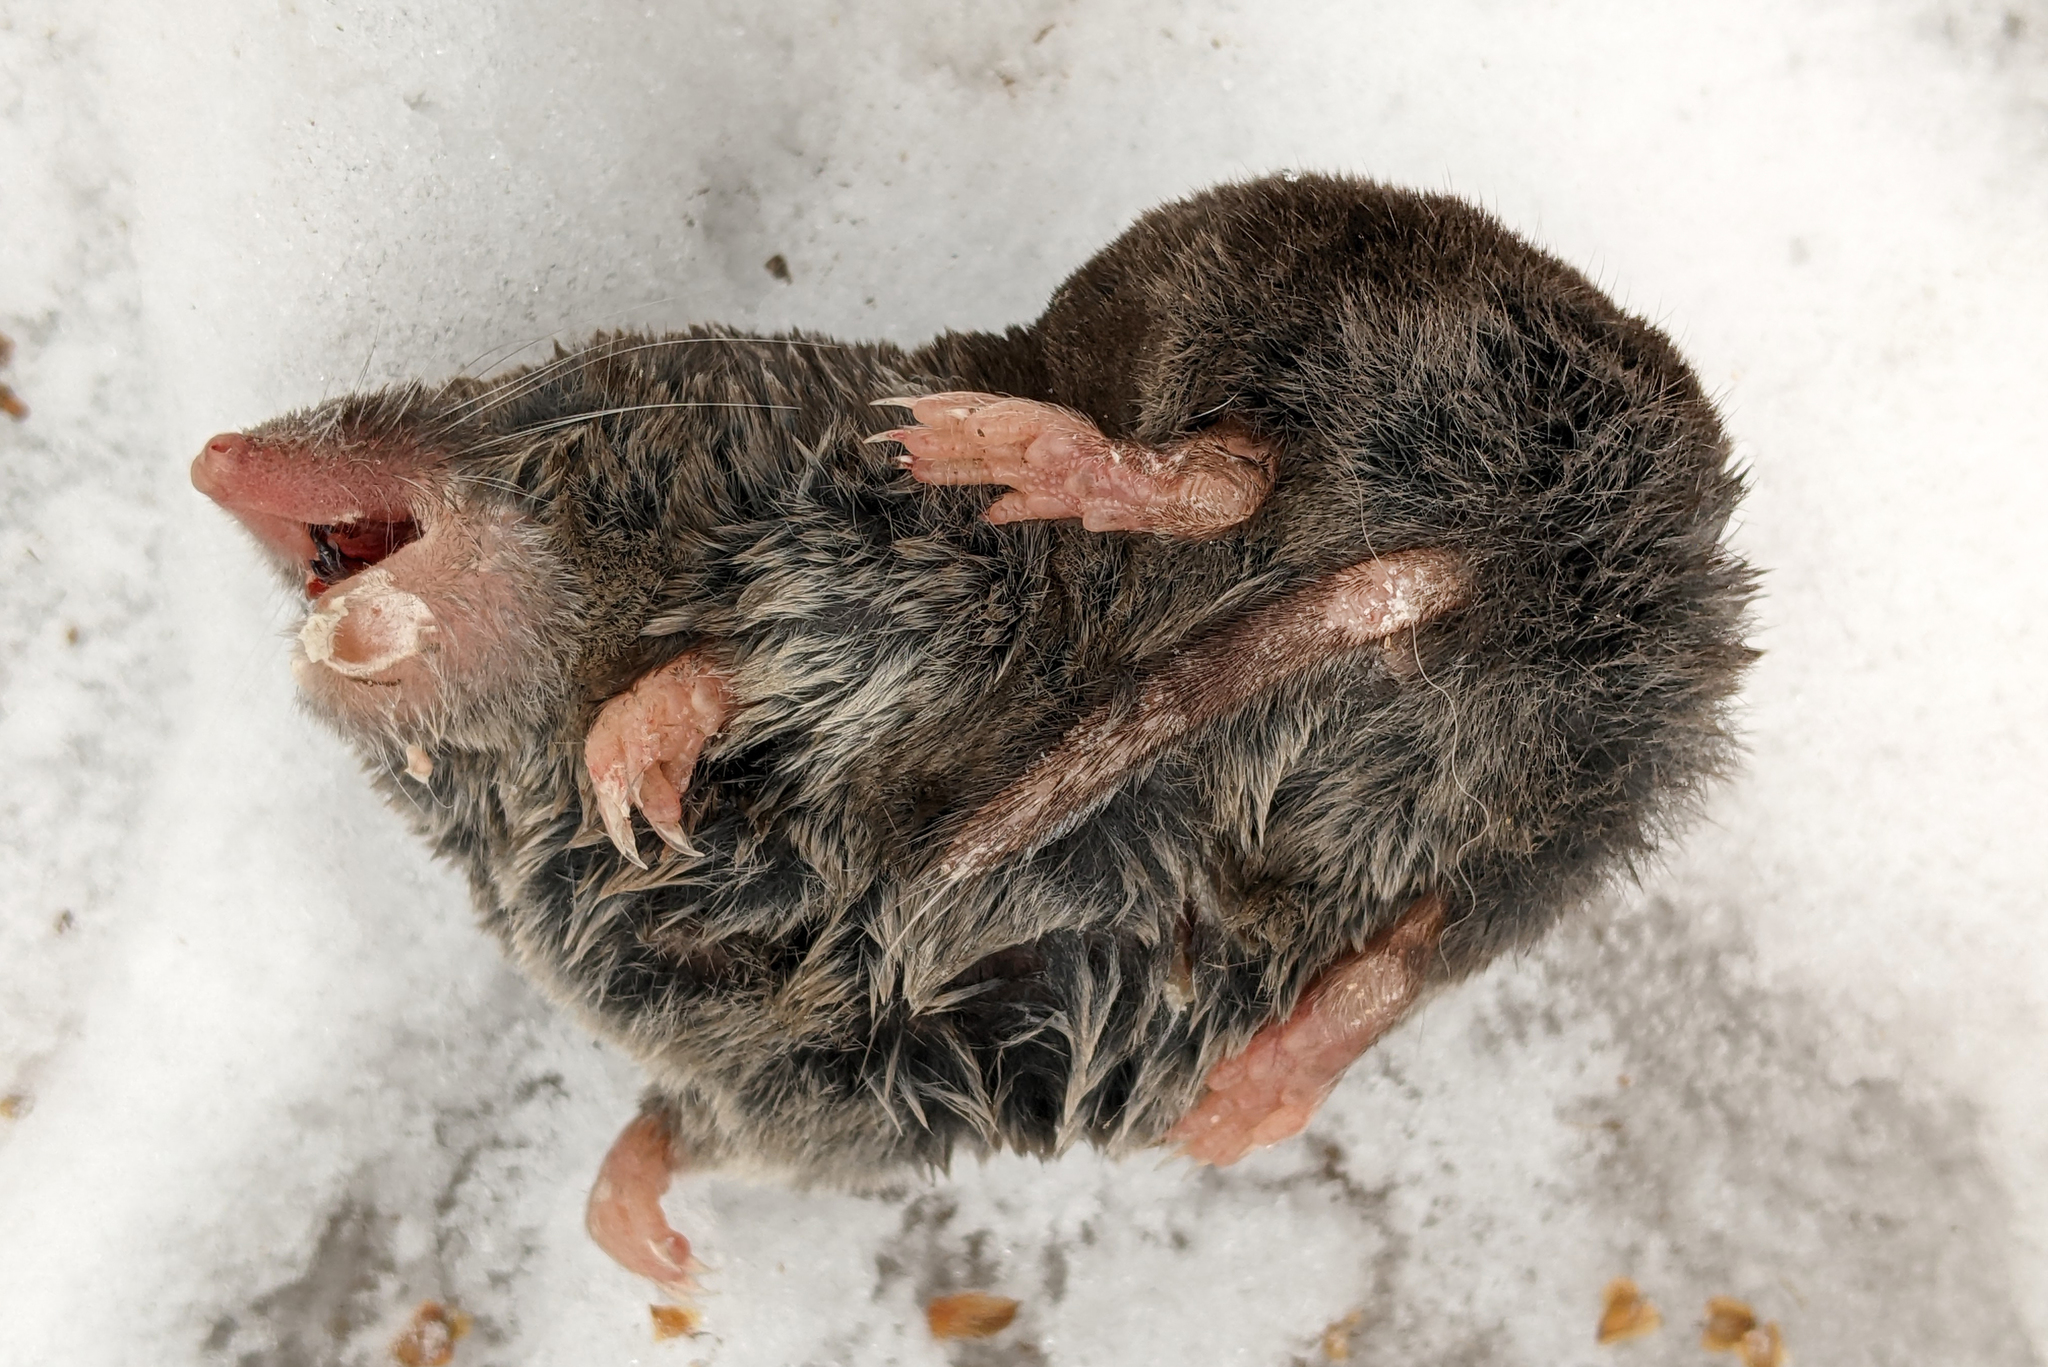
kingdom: Animalia
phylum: Chordata
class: Mammalia
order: Soricomorpha
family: Soricidae
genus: Blarina
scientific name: Blarina brevicauda
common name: Northern short-tailed shrew
